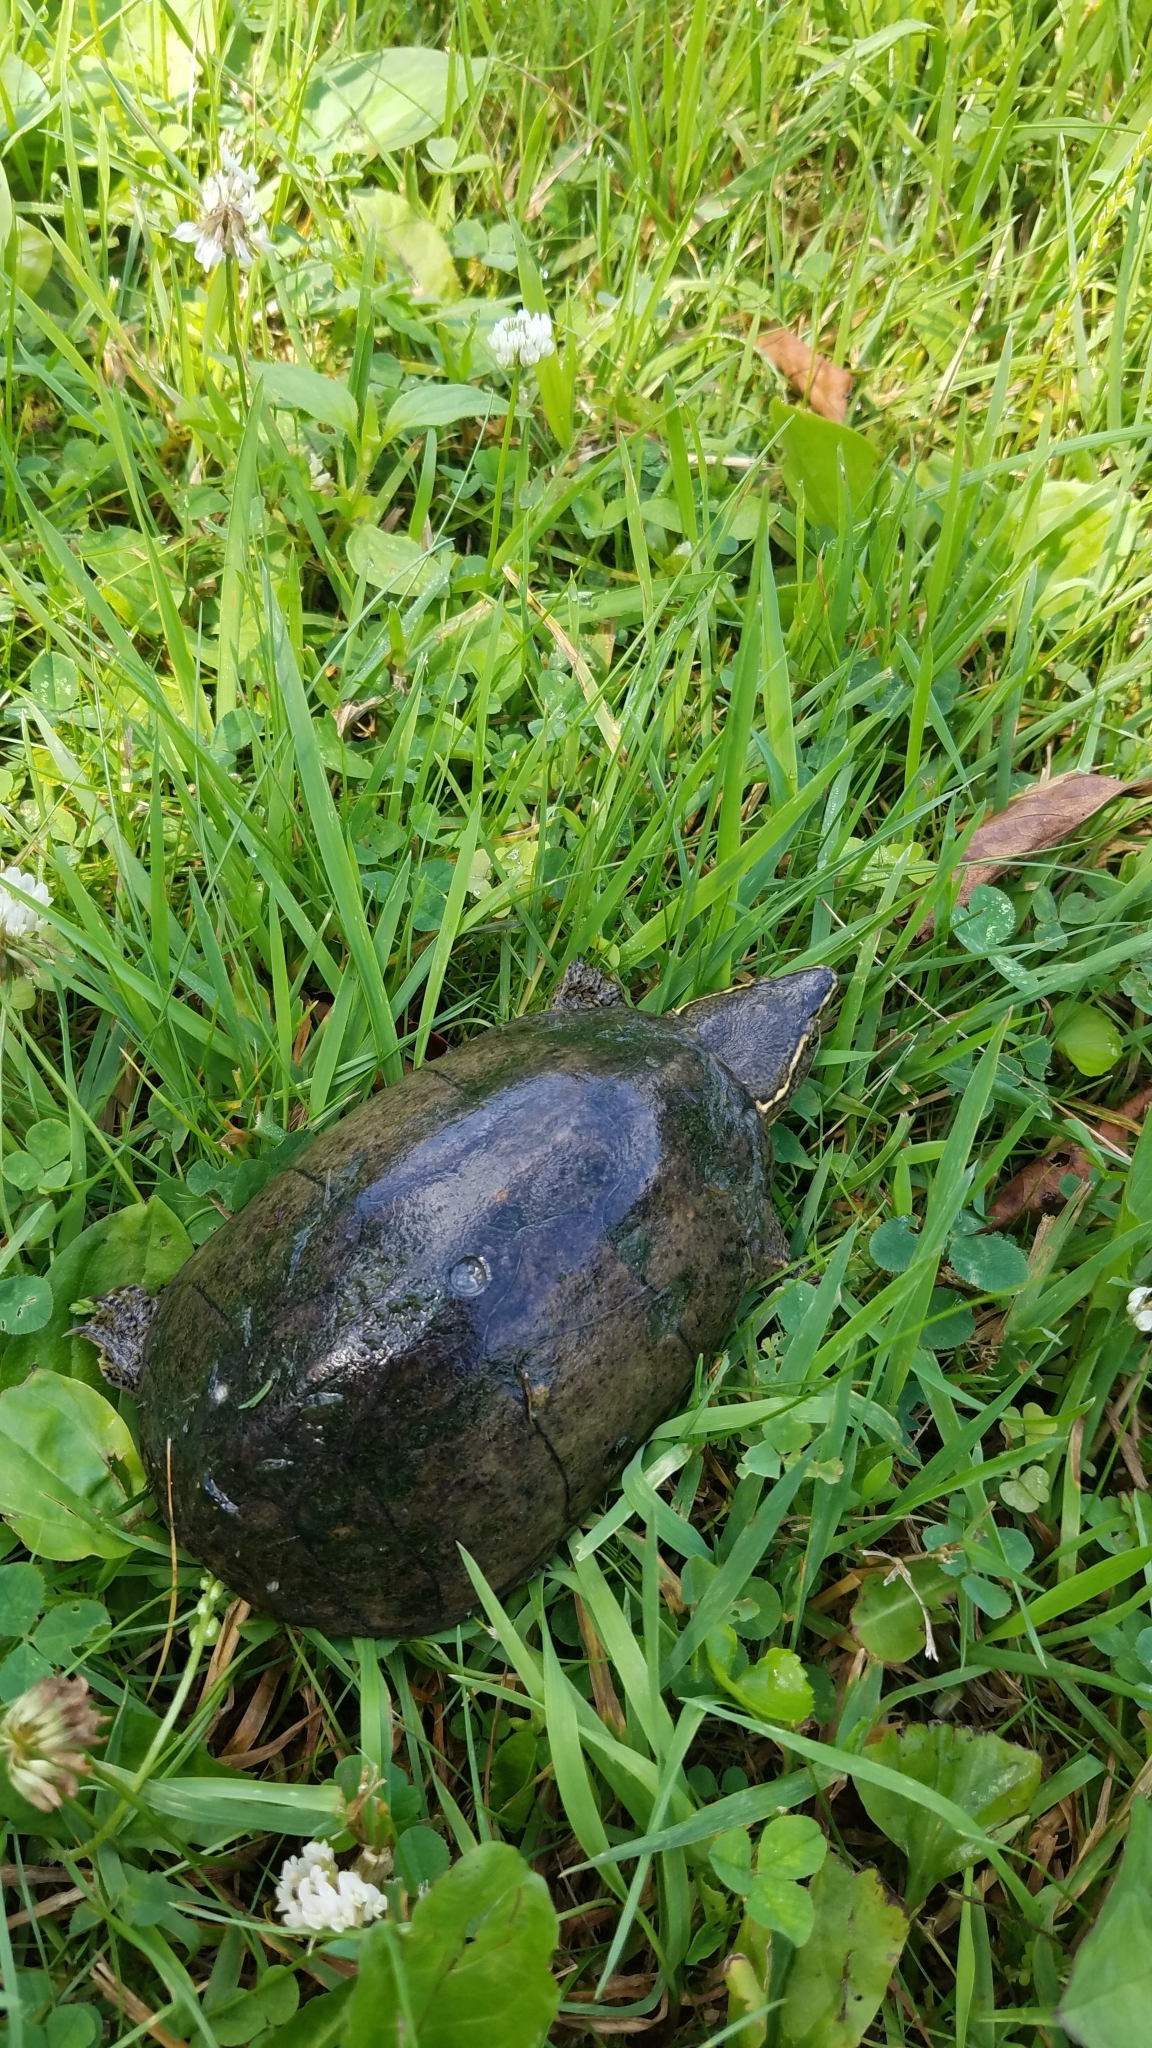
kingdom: Animalia
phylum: Chordata
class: Testudines
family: Kinosternidae
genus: Sternotherus
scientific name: Sternotherus odoratus
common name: Common musk turtle
